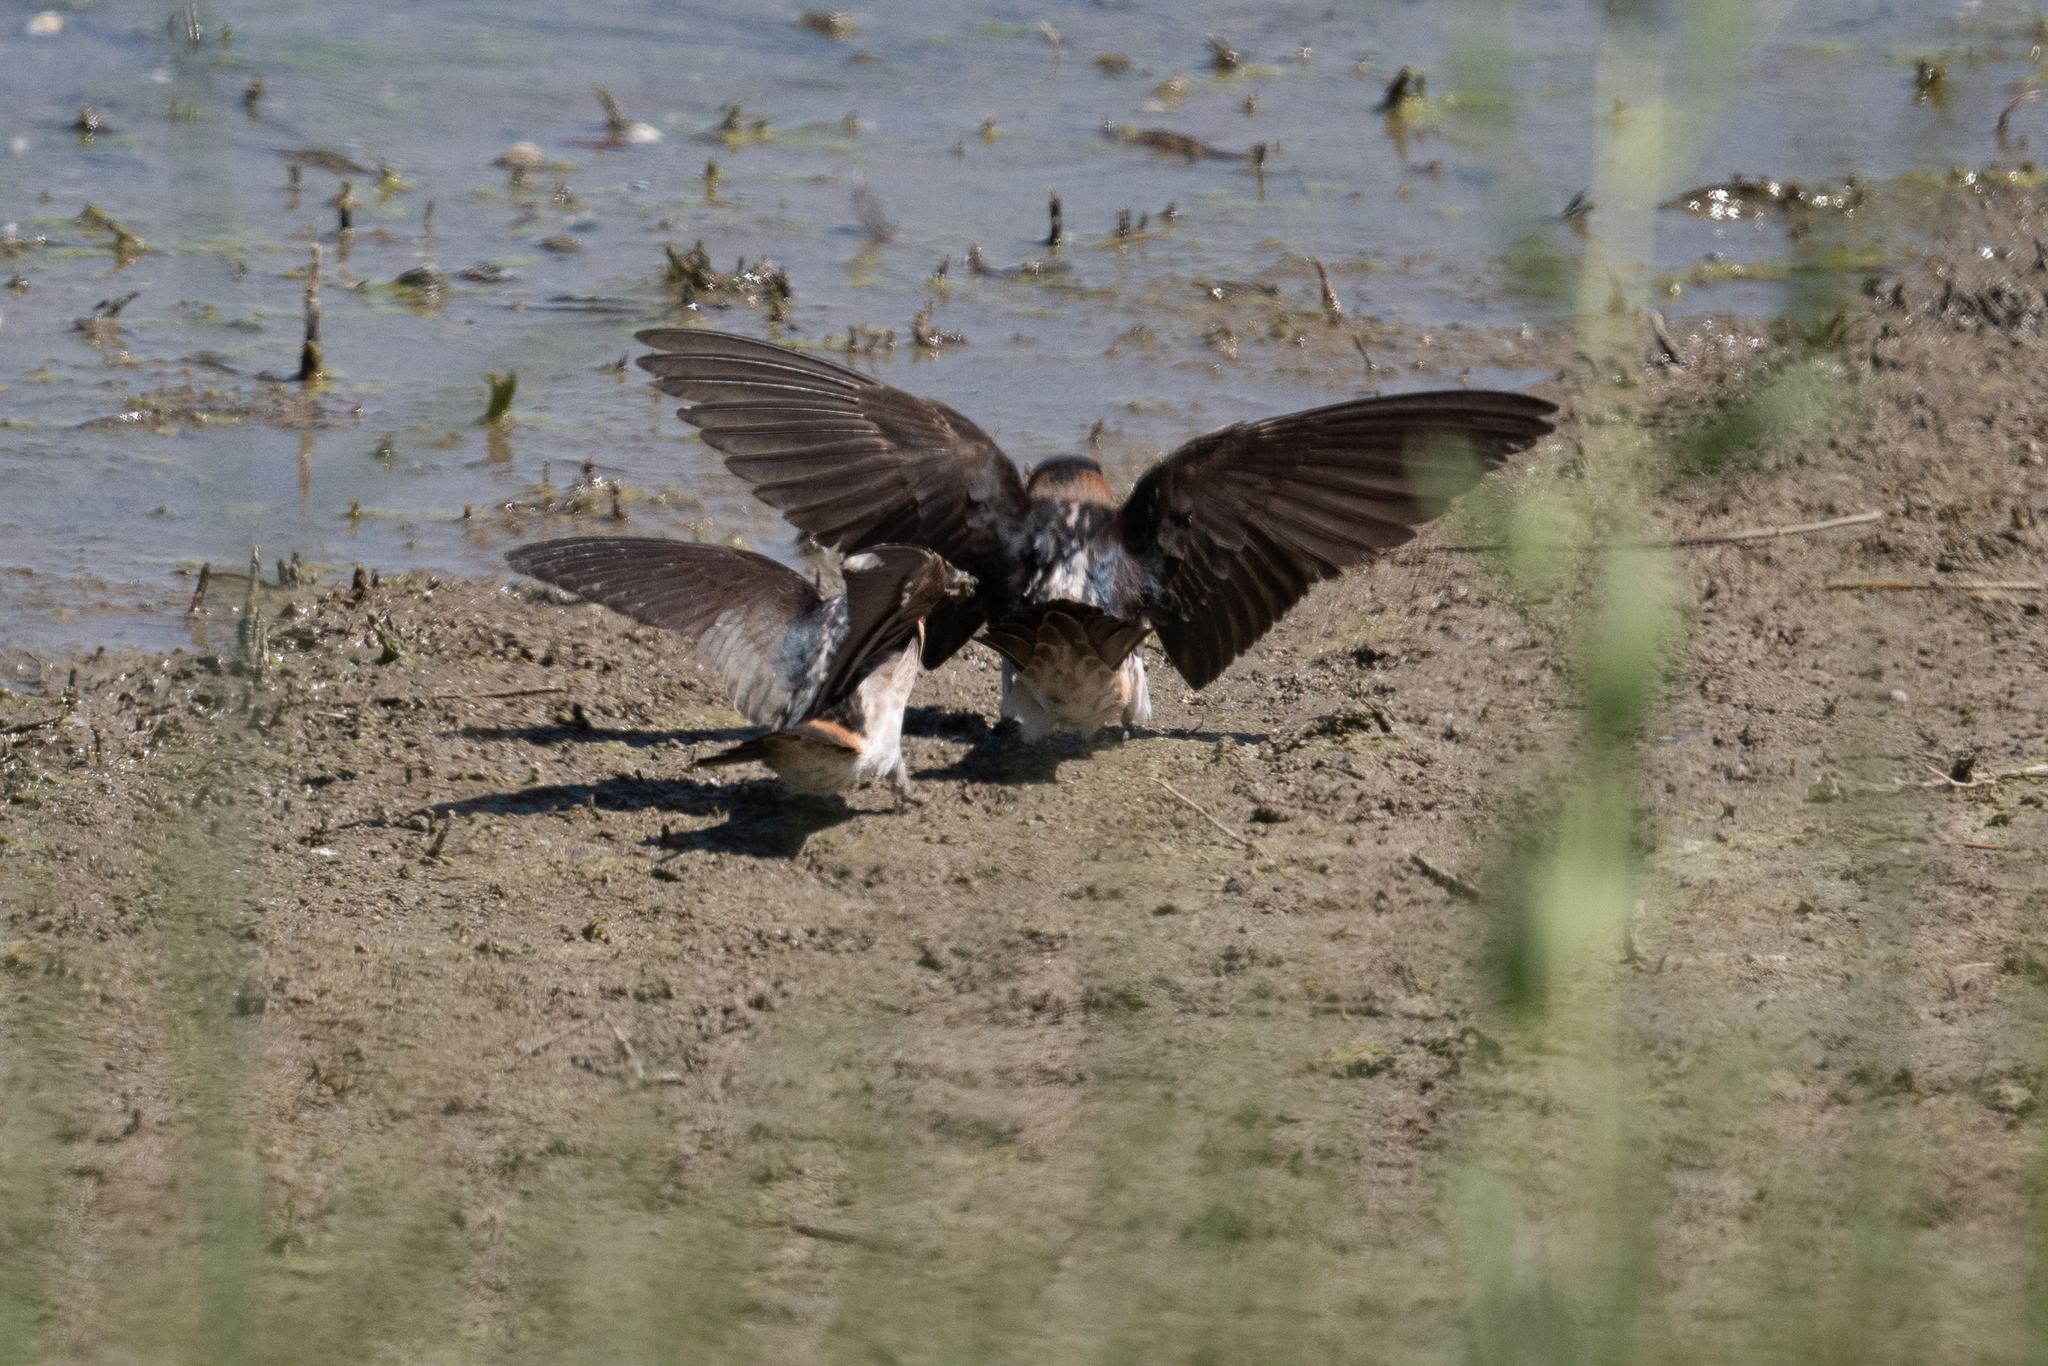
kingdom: Animalia
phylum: Chordata
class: Aves
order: Passeriformes
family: Hirundinidae
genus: Petrochelidon
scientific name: Petrochelidon pyrrhonota
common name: American cliff swallow
